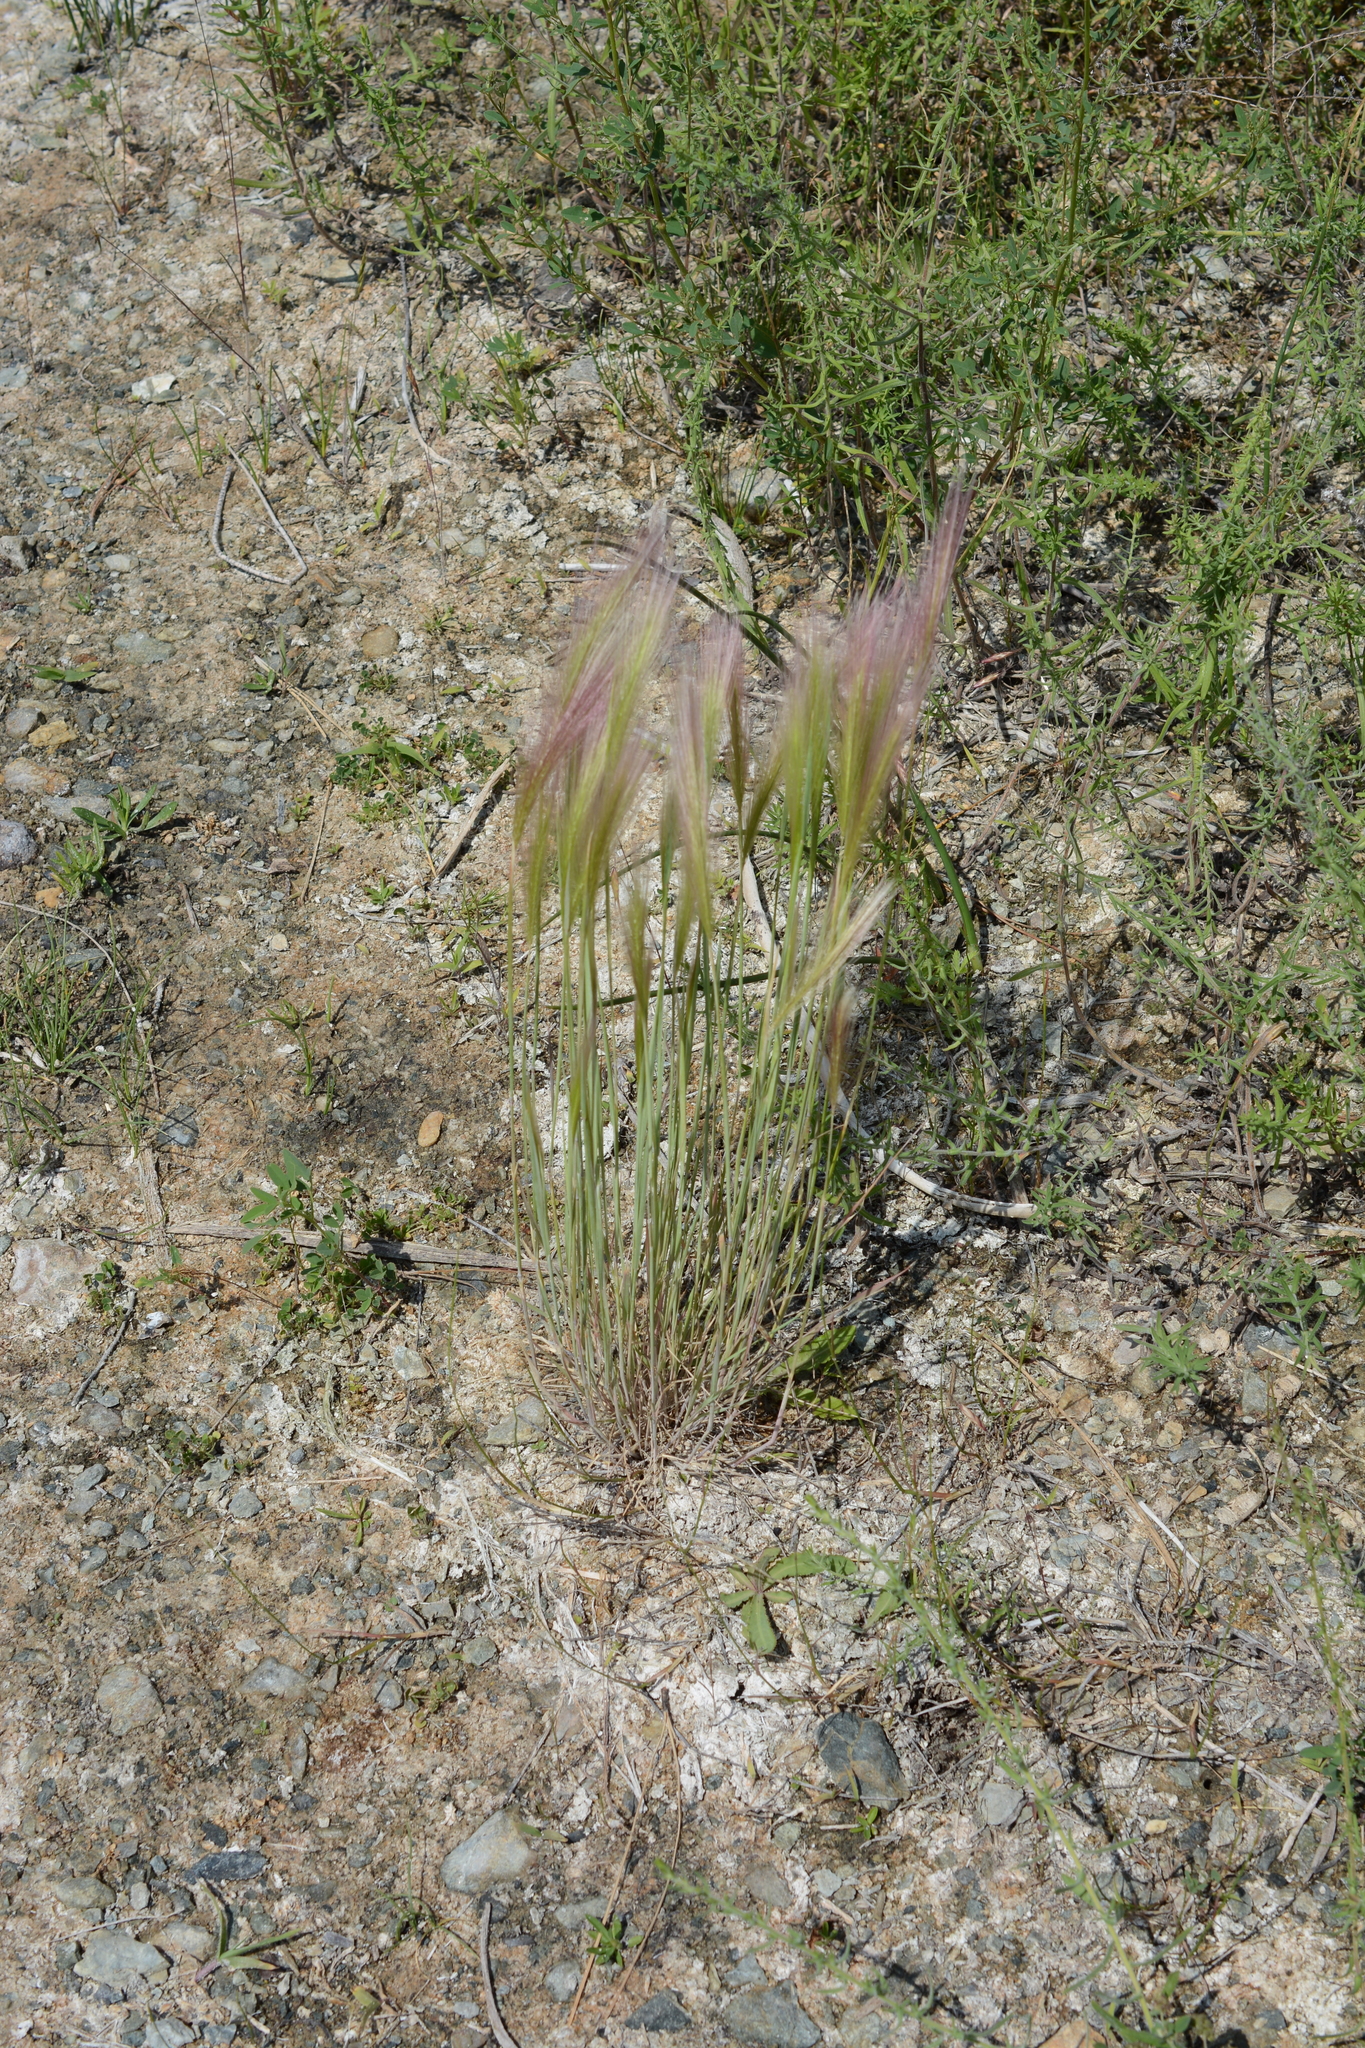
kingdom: Plantae
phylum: Tracheophyta
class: Liliopsida
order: Poales
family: Poaceae
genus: Hordeum
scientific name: Hordeum jubatum
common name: Foxtail barley
